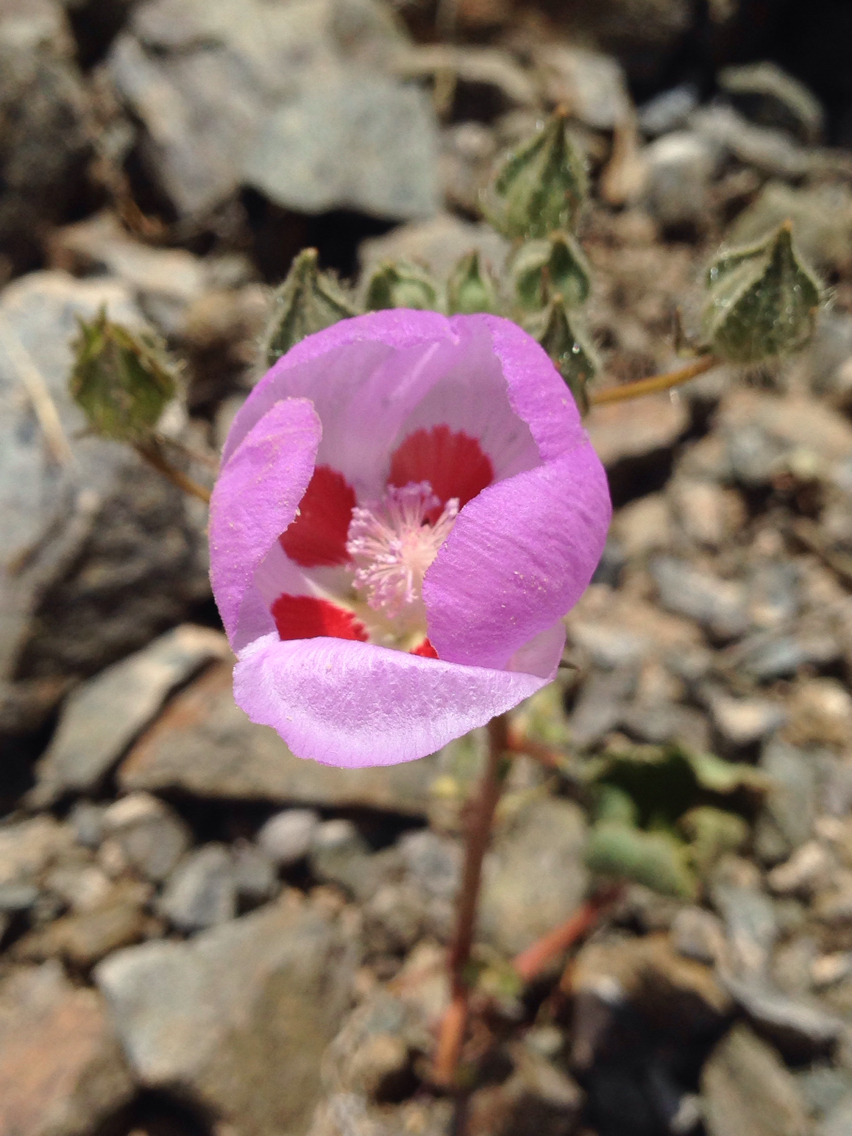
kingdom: Plantae
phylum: Tracheophyta
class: Magnoliopsida
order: Malvales
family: Malvaceae
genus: Eremalche
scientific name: Eremalche rotundifolia
